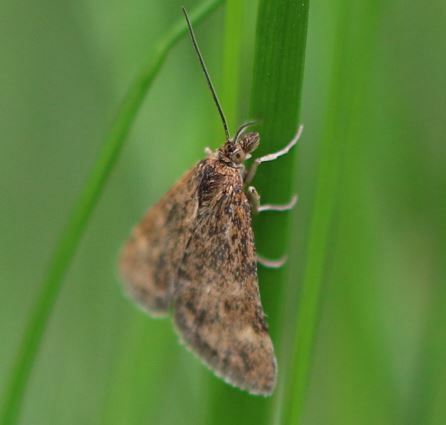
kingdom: Animalia
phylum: Arthropoda
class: Insecta
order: Lepidoptera
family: Crambidae
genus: Pyrausta
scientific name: Pyrausta despicata
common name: Straw-barred pearl
